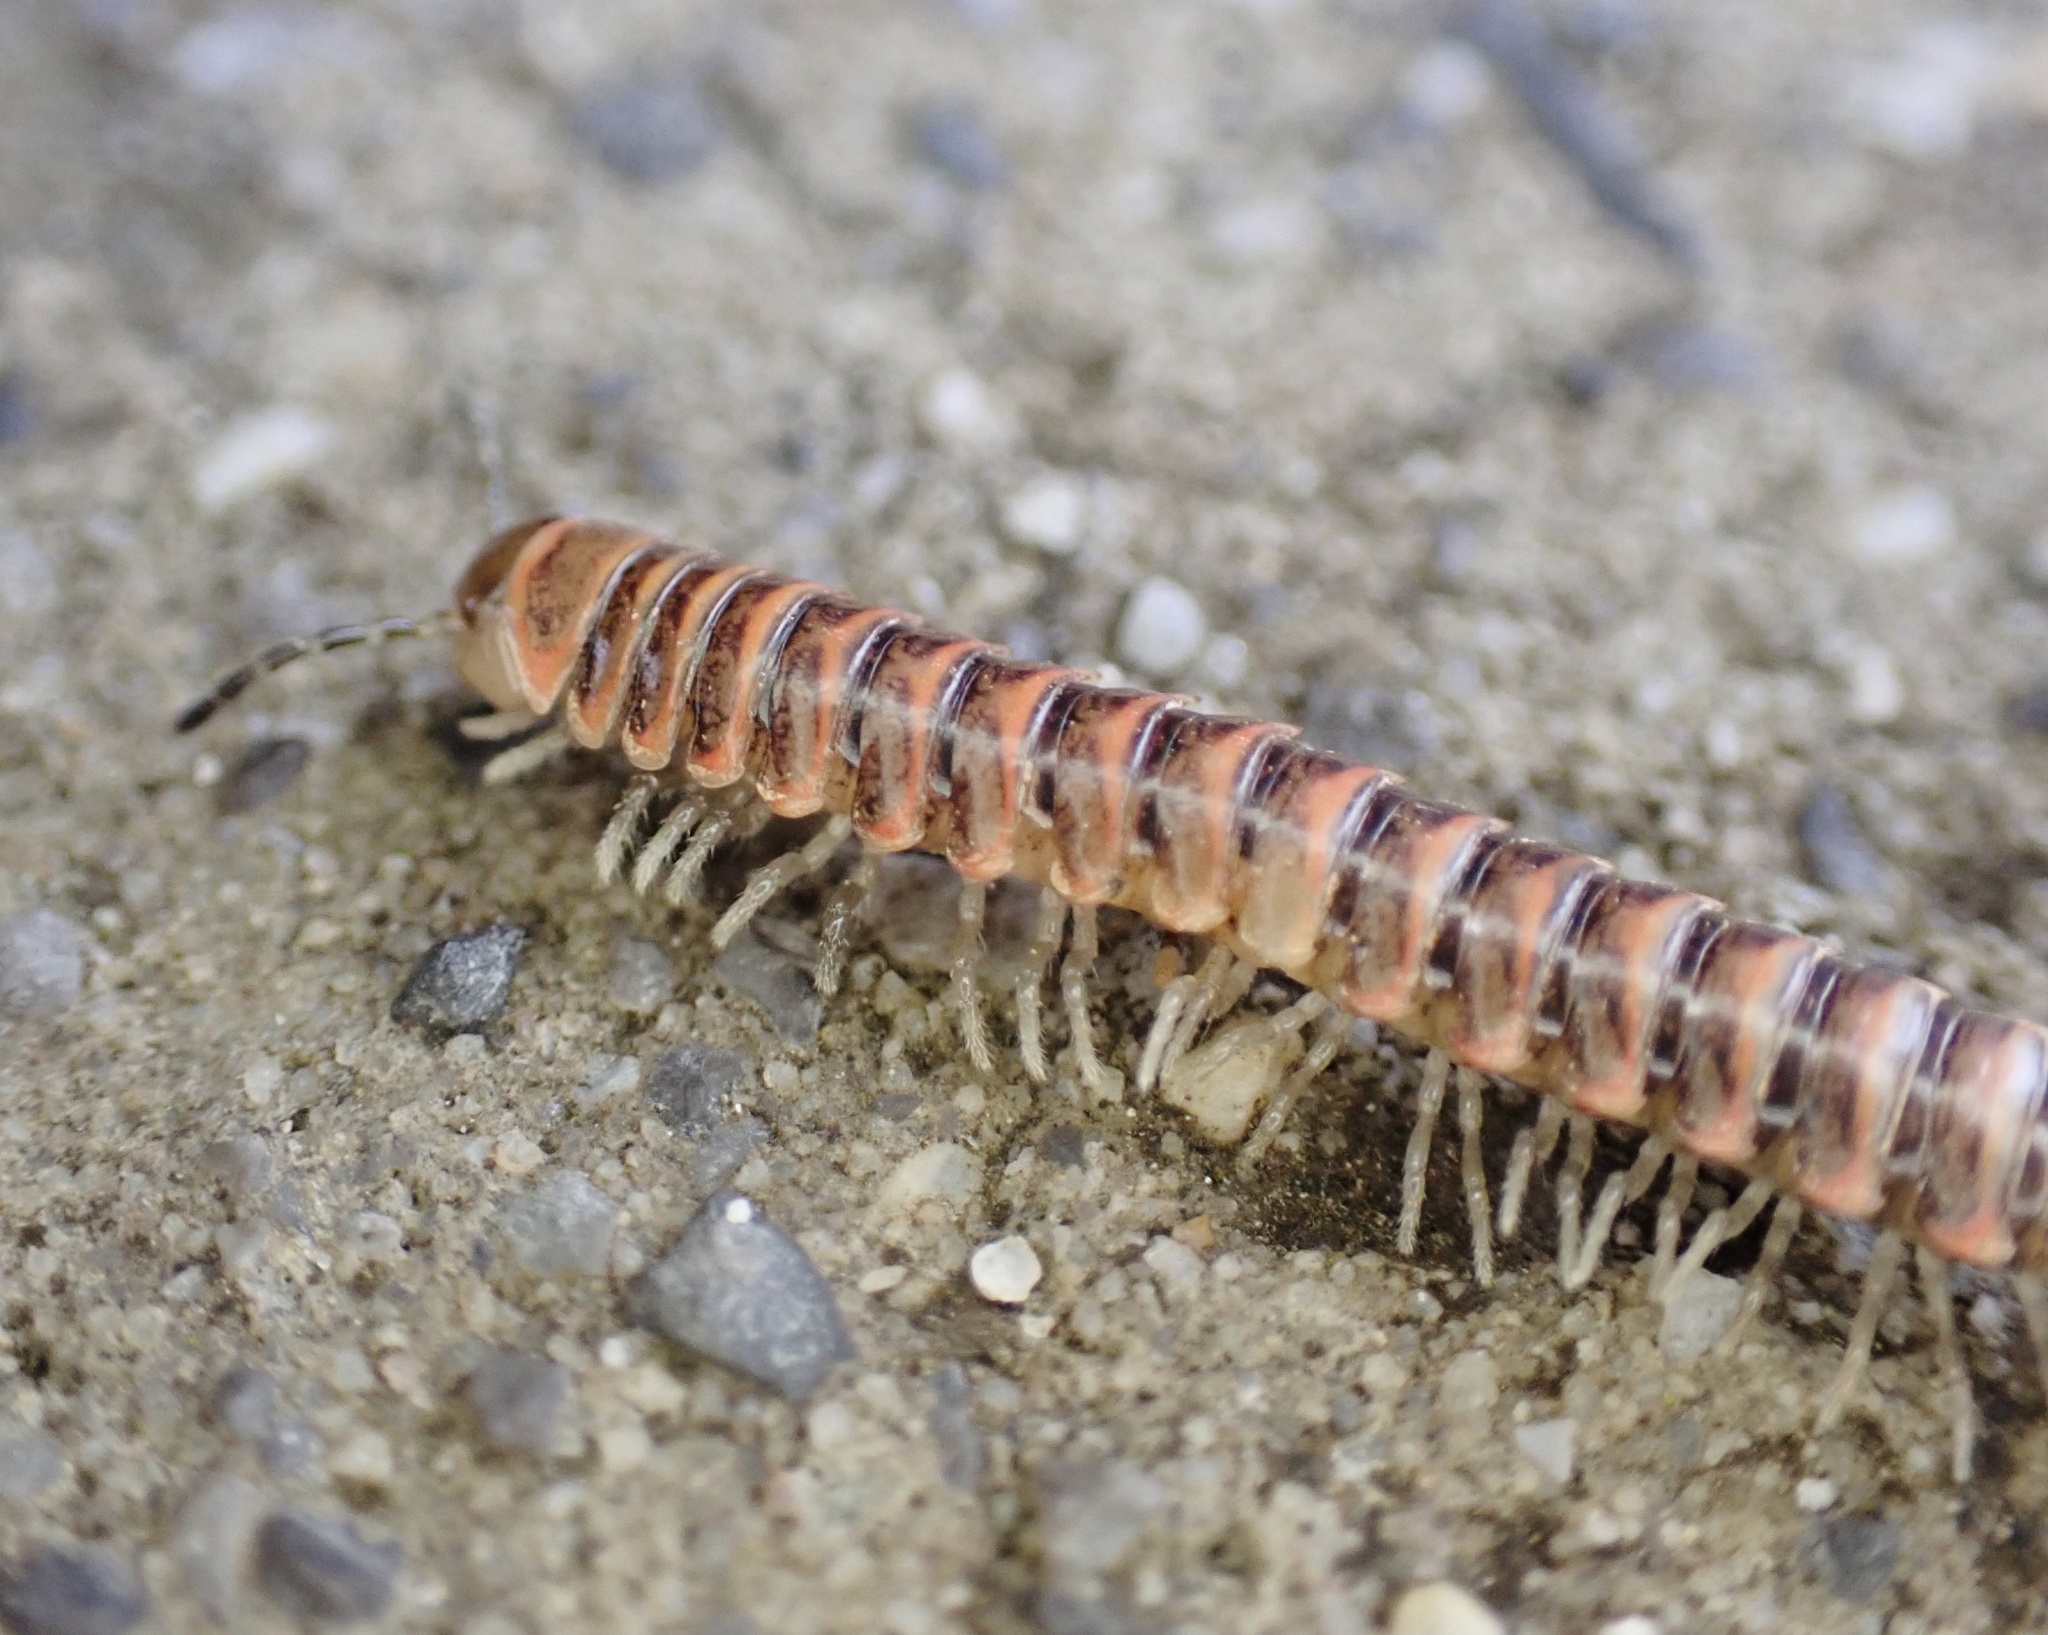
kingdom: Animalia
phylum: Arthropoda
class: Diplopoda
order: Polydesmida
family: Xystodesmidae
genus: Oenomaea
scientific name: Oenomaea pulchella
